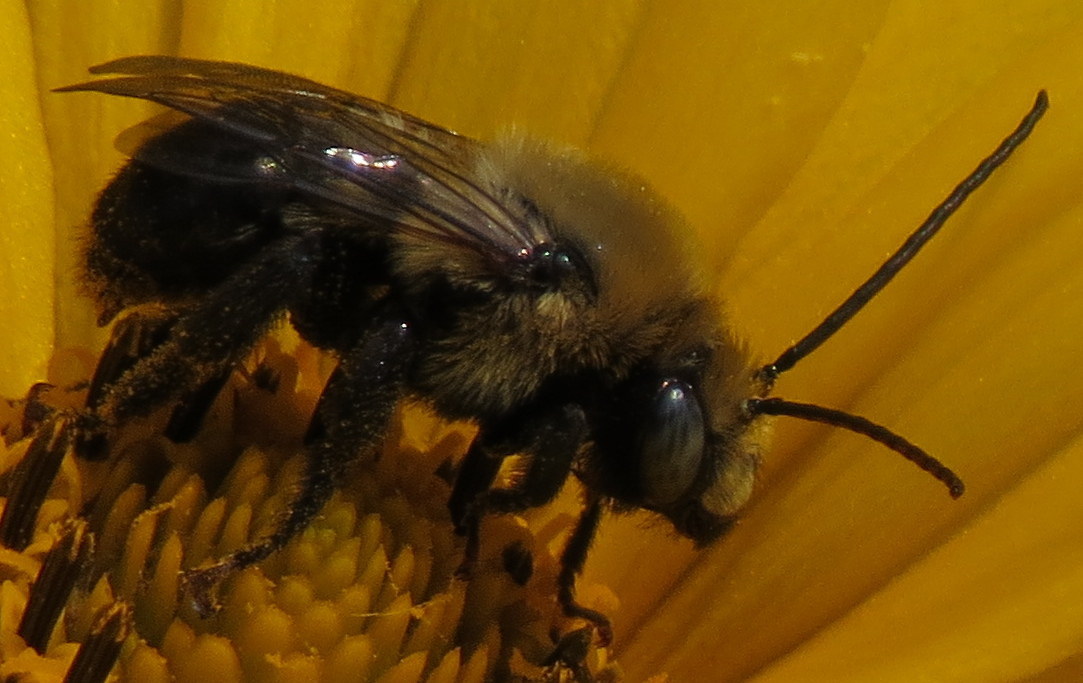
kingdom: Animalia
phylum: Arthropoda
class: Insecta
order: Hymenoptera
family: Apidae
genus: Melissodes
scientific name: Melissodes desponsus
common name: Thistle long-horned bee
